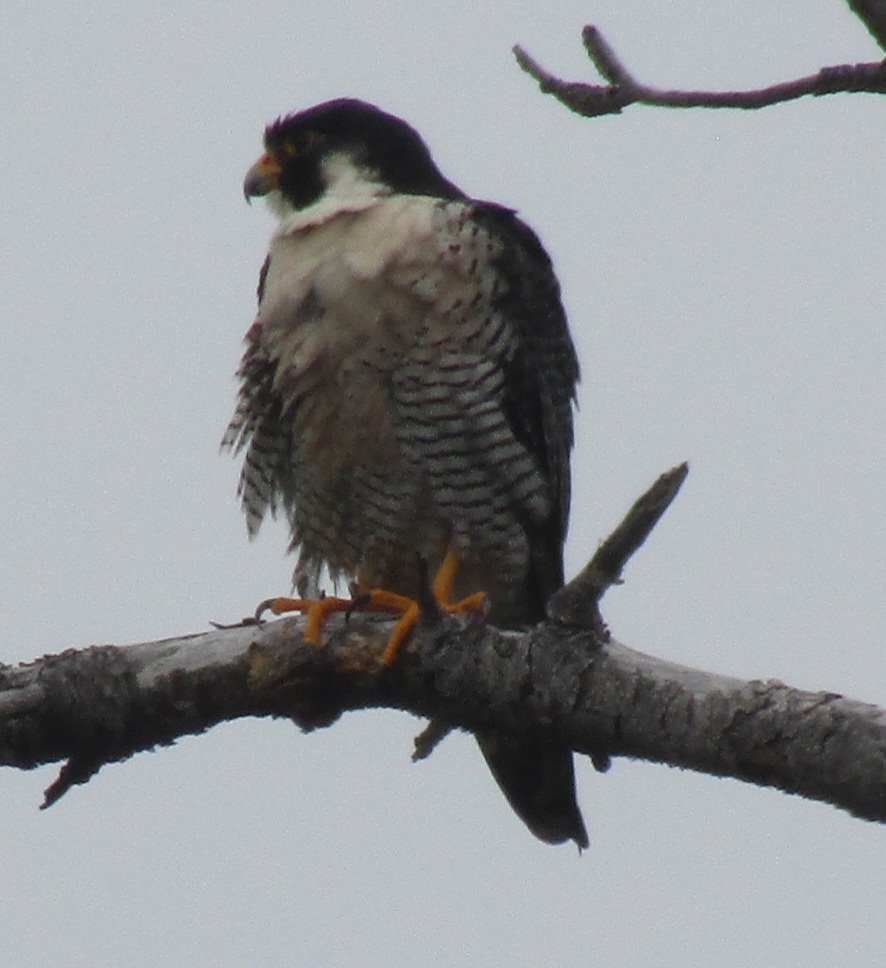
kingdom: Animalia
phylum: Chordata
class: Aves
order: Falconiformes
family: Falconidae
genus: Falco
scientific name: Falco peregrinus
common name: Peregrine falcon
